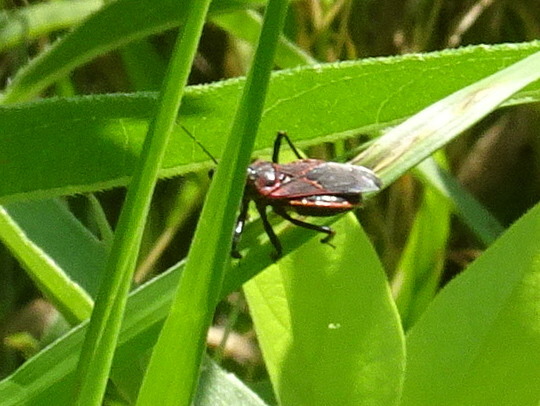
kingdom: Animalia
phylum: Arthropoda
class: Insecta
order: Hemiptera
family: Reduviidae
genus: Apiomerus
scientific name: Apiomerus crassipes
